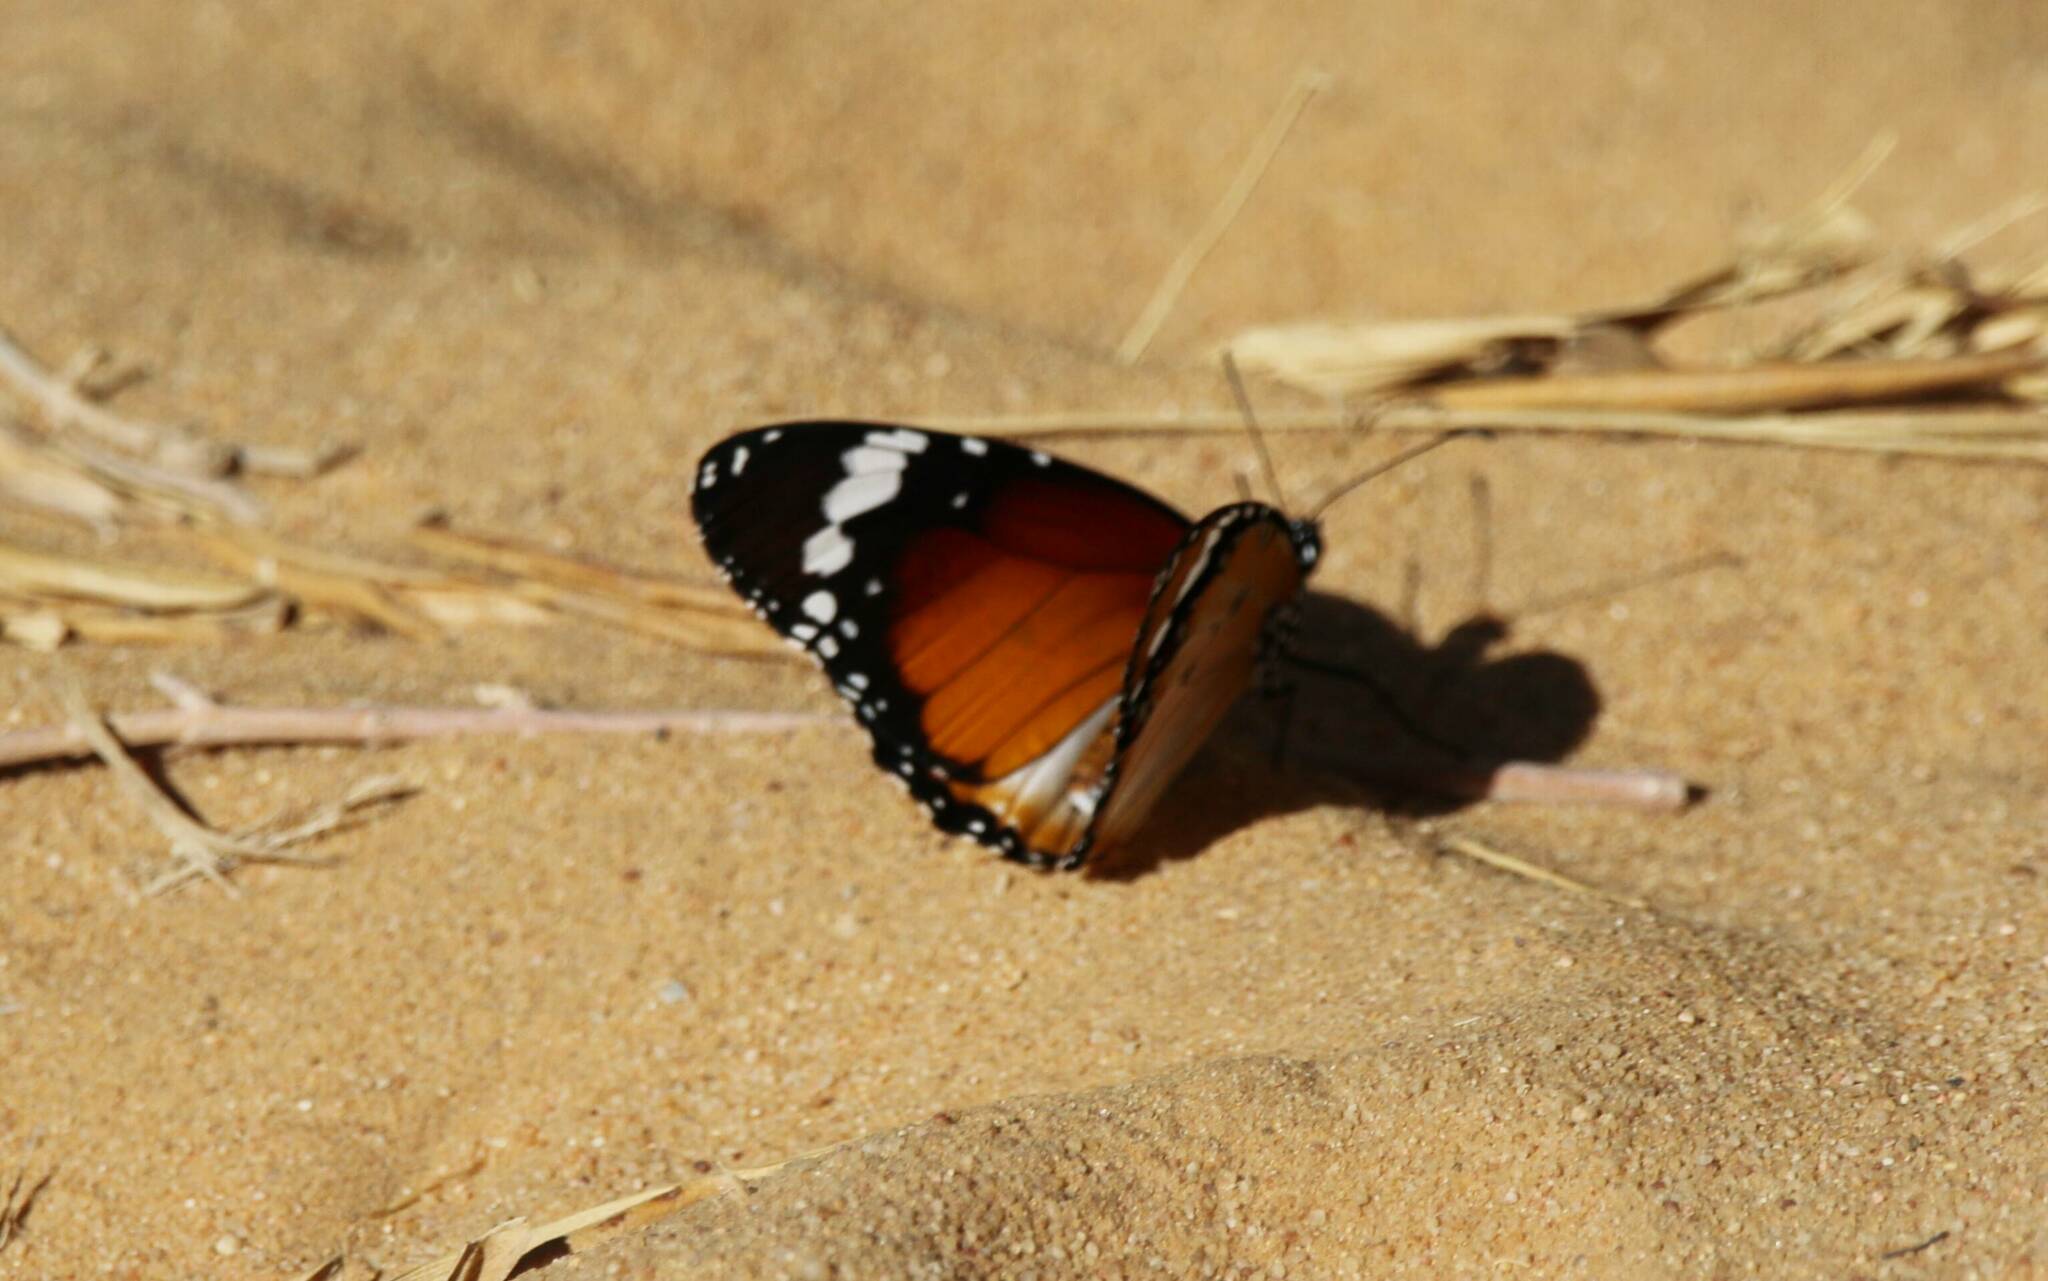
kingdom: Animalia
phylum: Arthropoda
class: Insecta
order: Lepidoptera
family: Nymphalidae
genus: Danaus
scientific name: Danaus chrysippus
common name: Plain tiger
